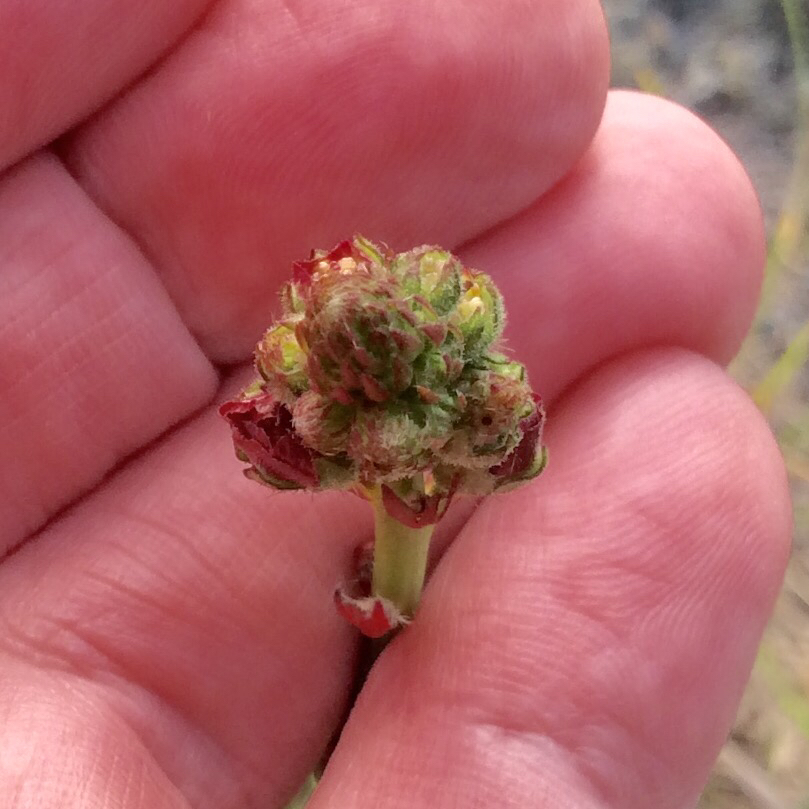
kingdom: Plantae
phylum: Tracheophyta
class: Magnoliopsida
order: Malvales
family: Malvaceae
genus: Sidalcea
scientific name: Sidalcea
